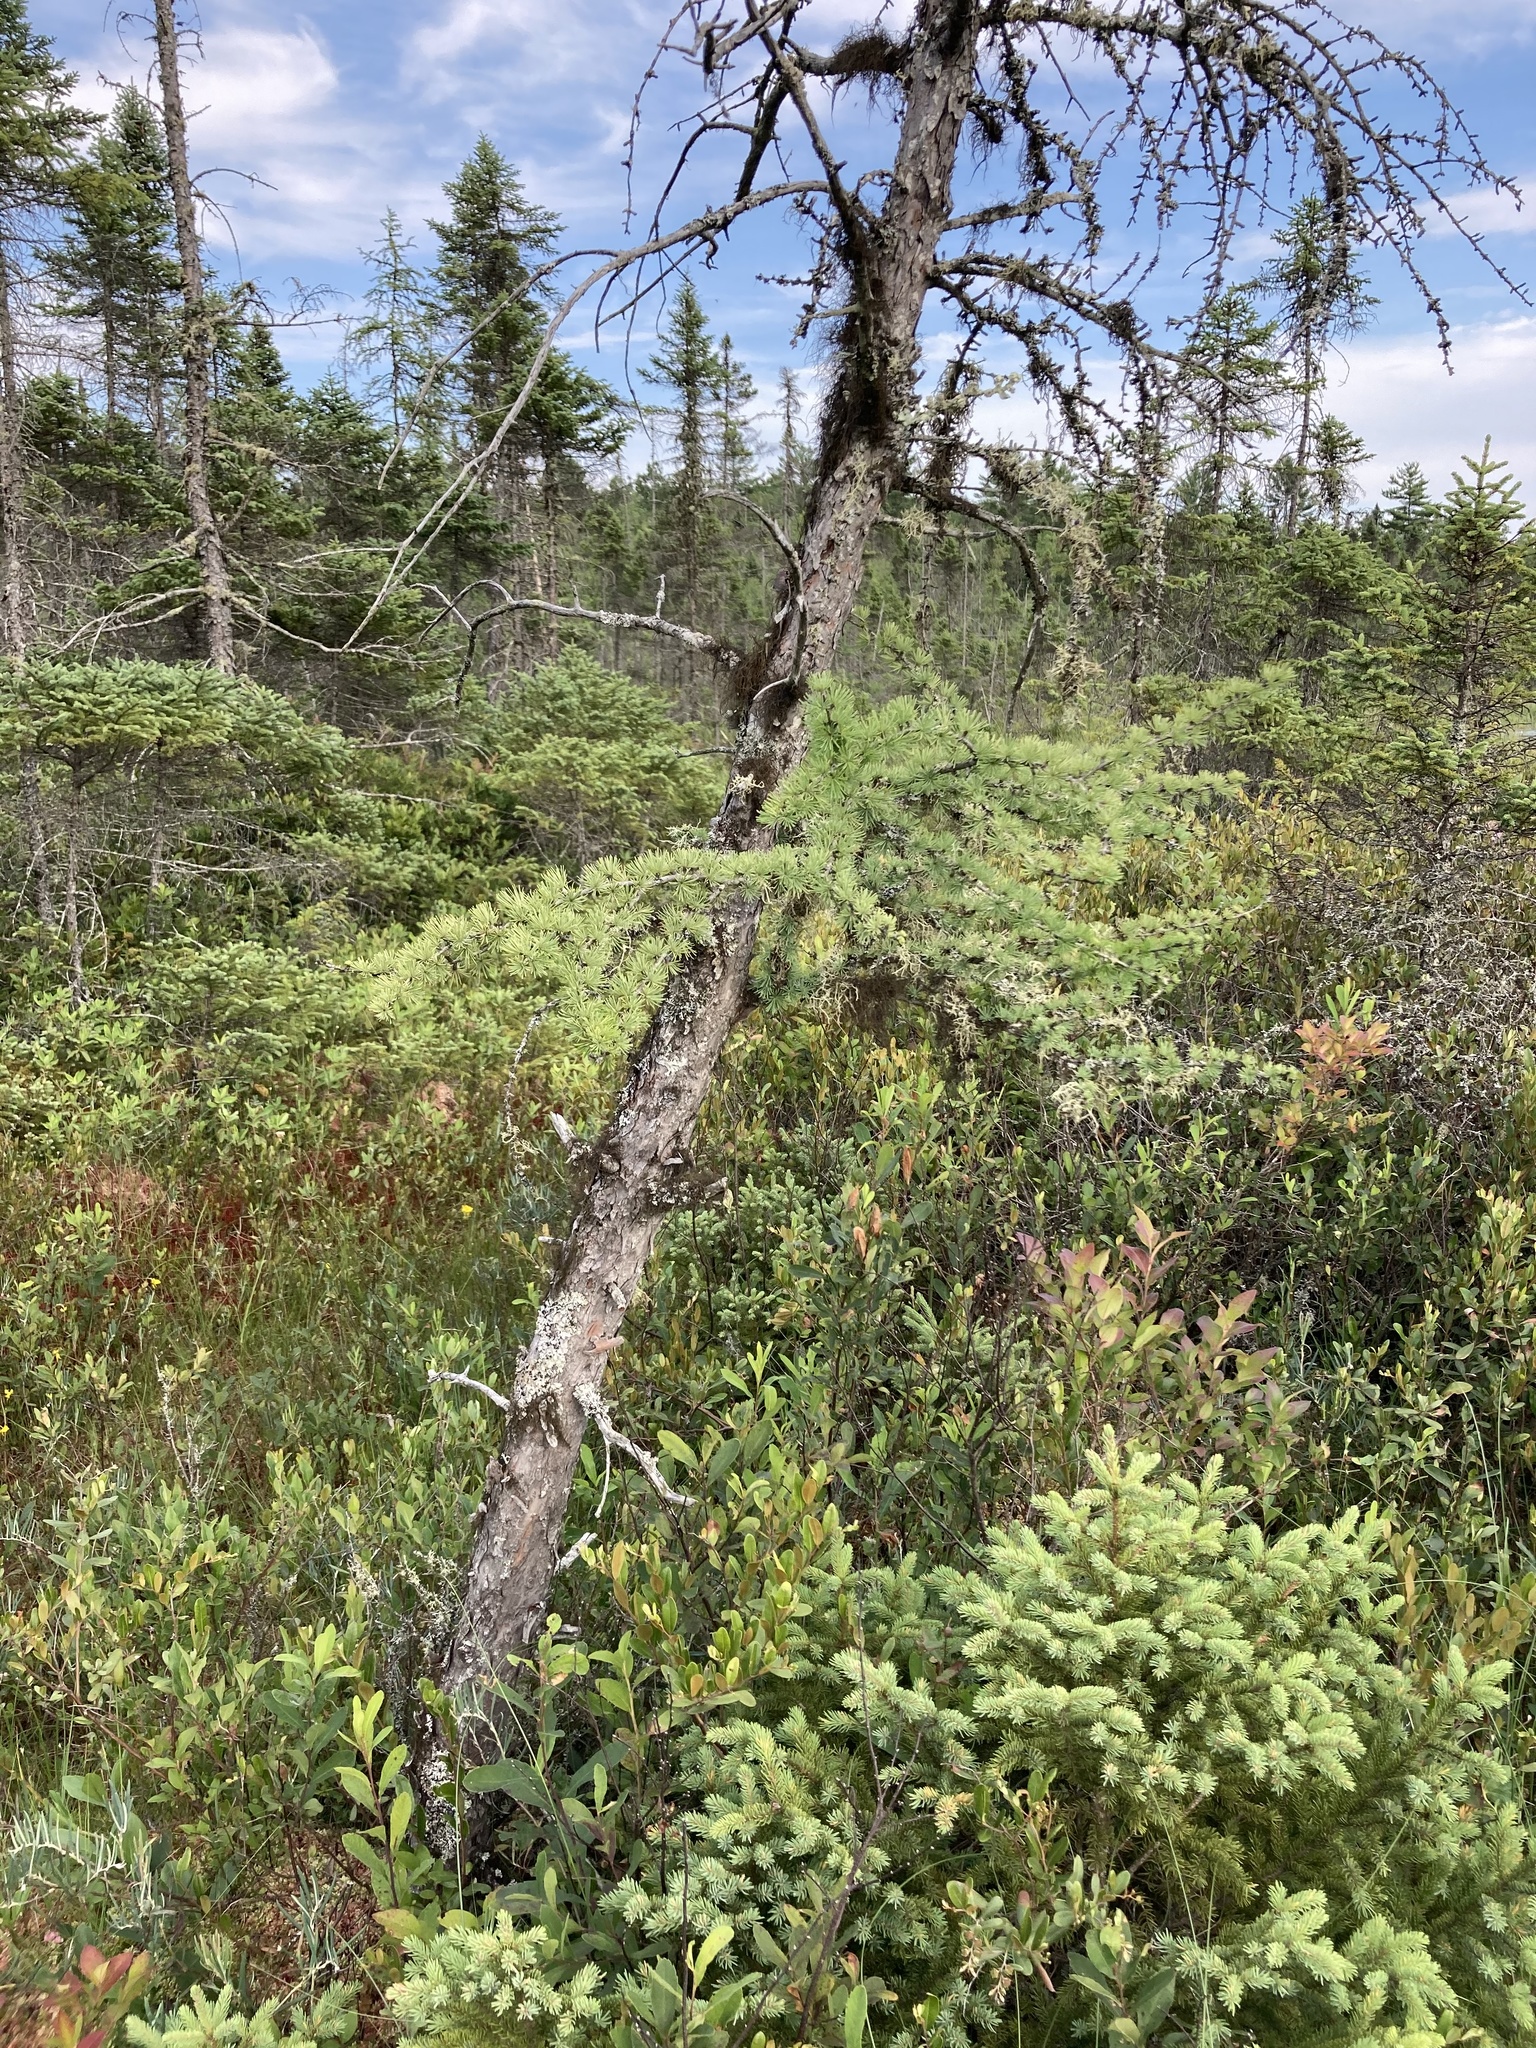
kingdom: Plantae
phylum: Tracheophyta
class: Pinopsida
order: Pinales
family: Pinaceae
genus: Larix
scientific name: Larix laricina
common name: American larch
